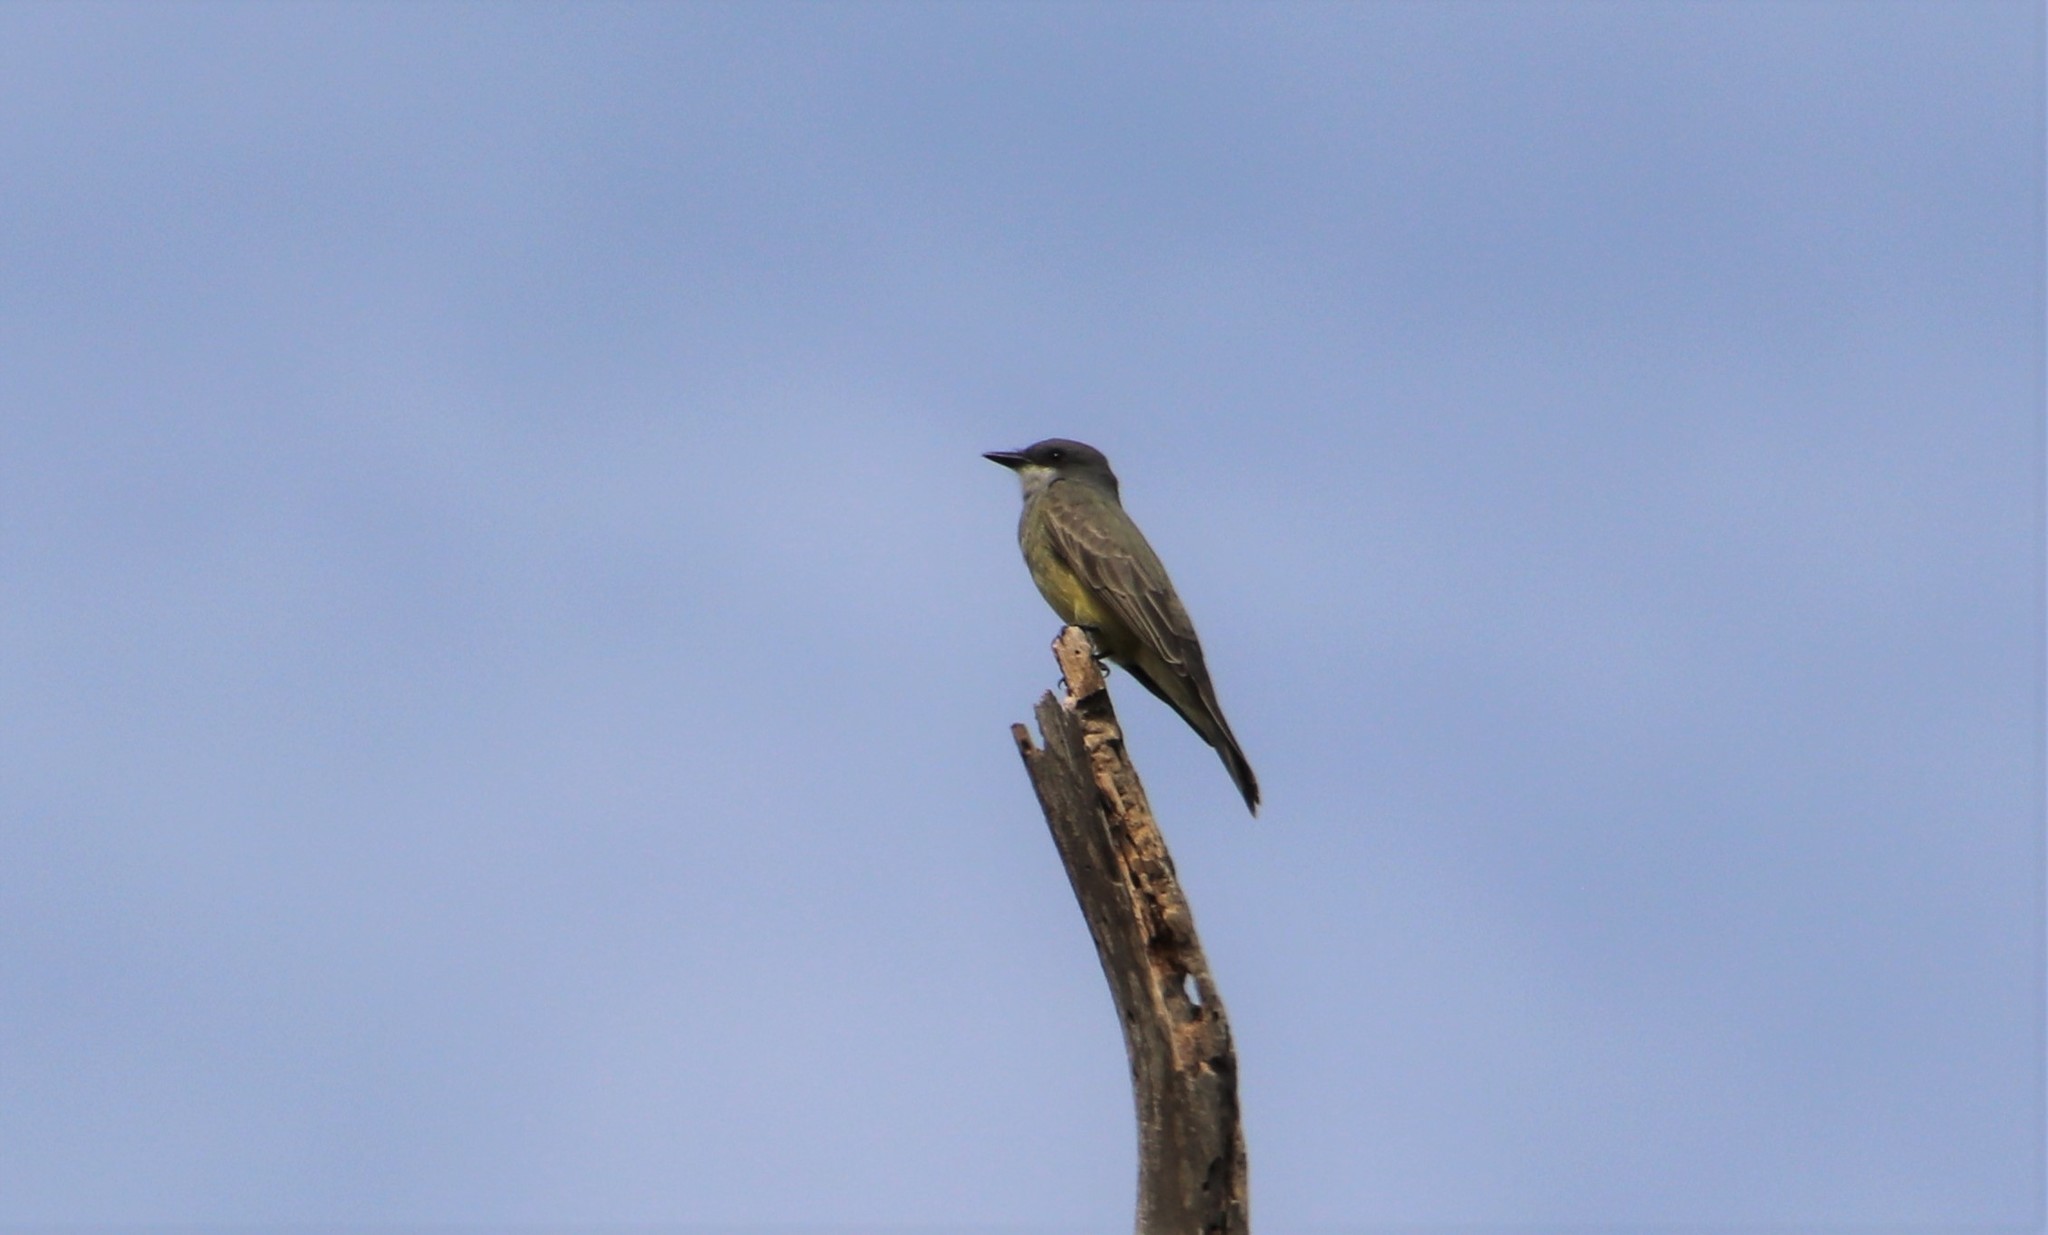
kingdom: Animalia
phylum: Chordata
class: Aves
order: Passeriformes
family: Tyrannidae
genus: Tyrannus
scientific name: Tyrannus vociferans
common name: Cassin's kingbird
